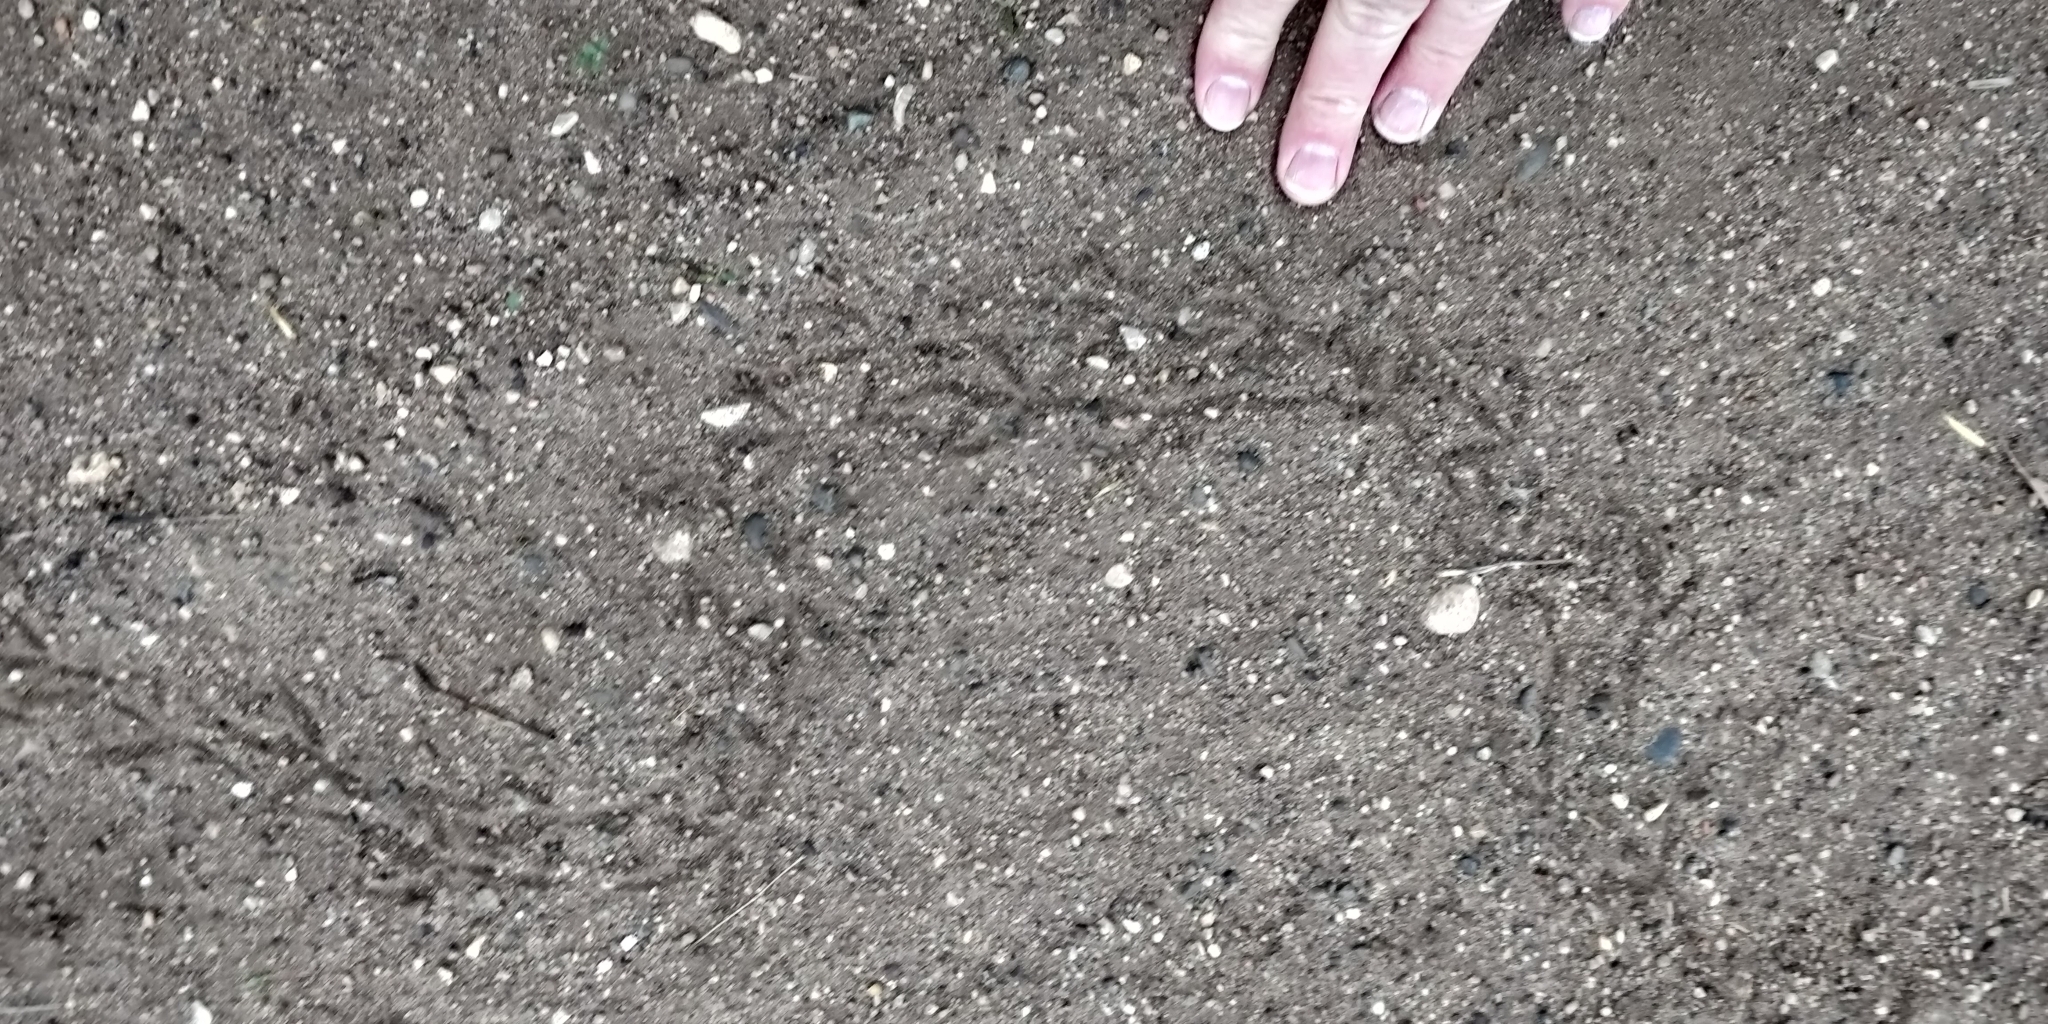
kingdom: Animalia
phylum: Chordata
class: Aves
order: Charadriiformes
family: Scolopacidae
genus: Scolopax
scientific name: Scolopax minor
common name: American woodcock
